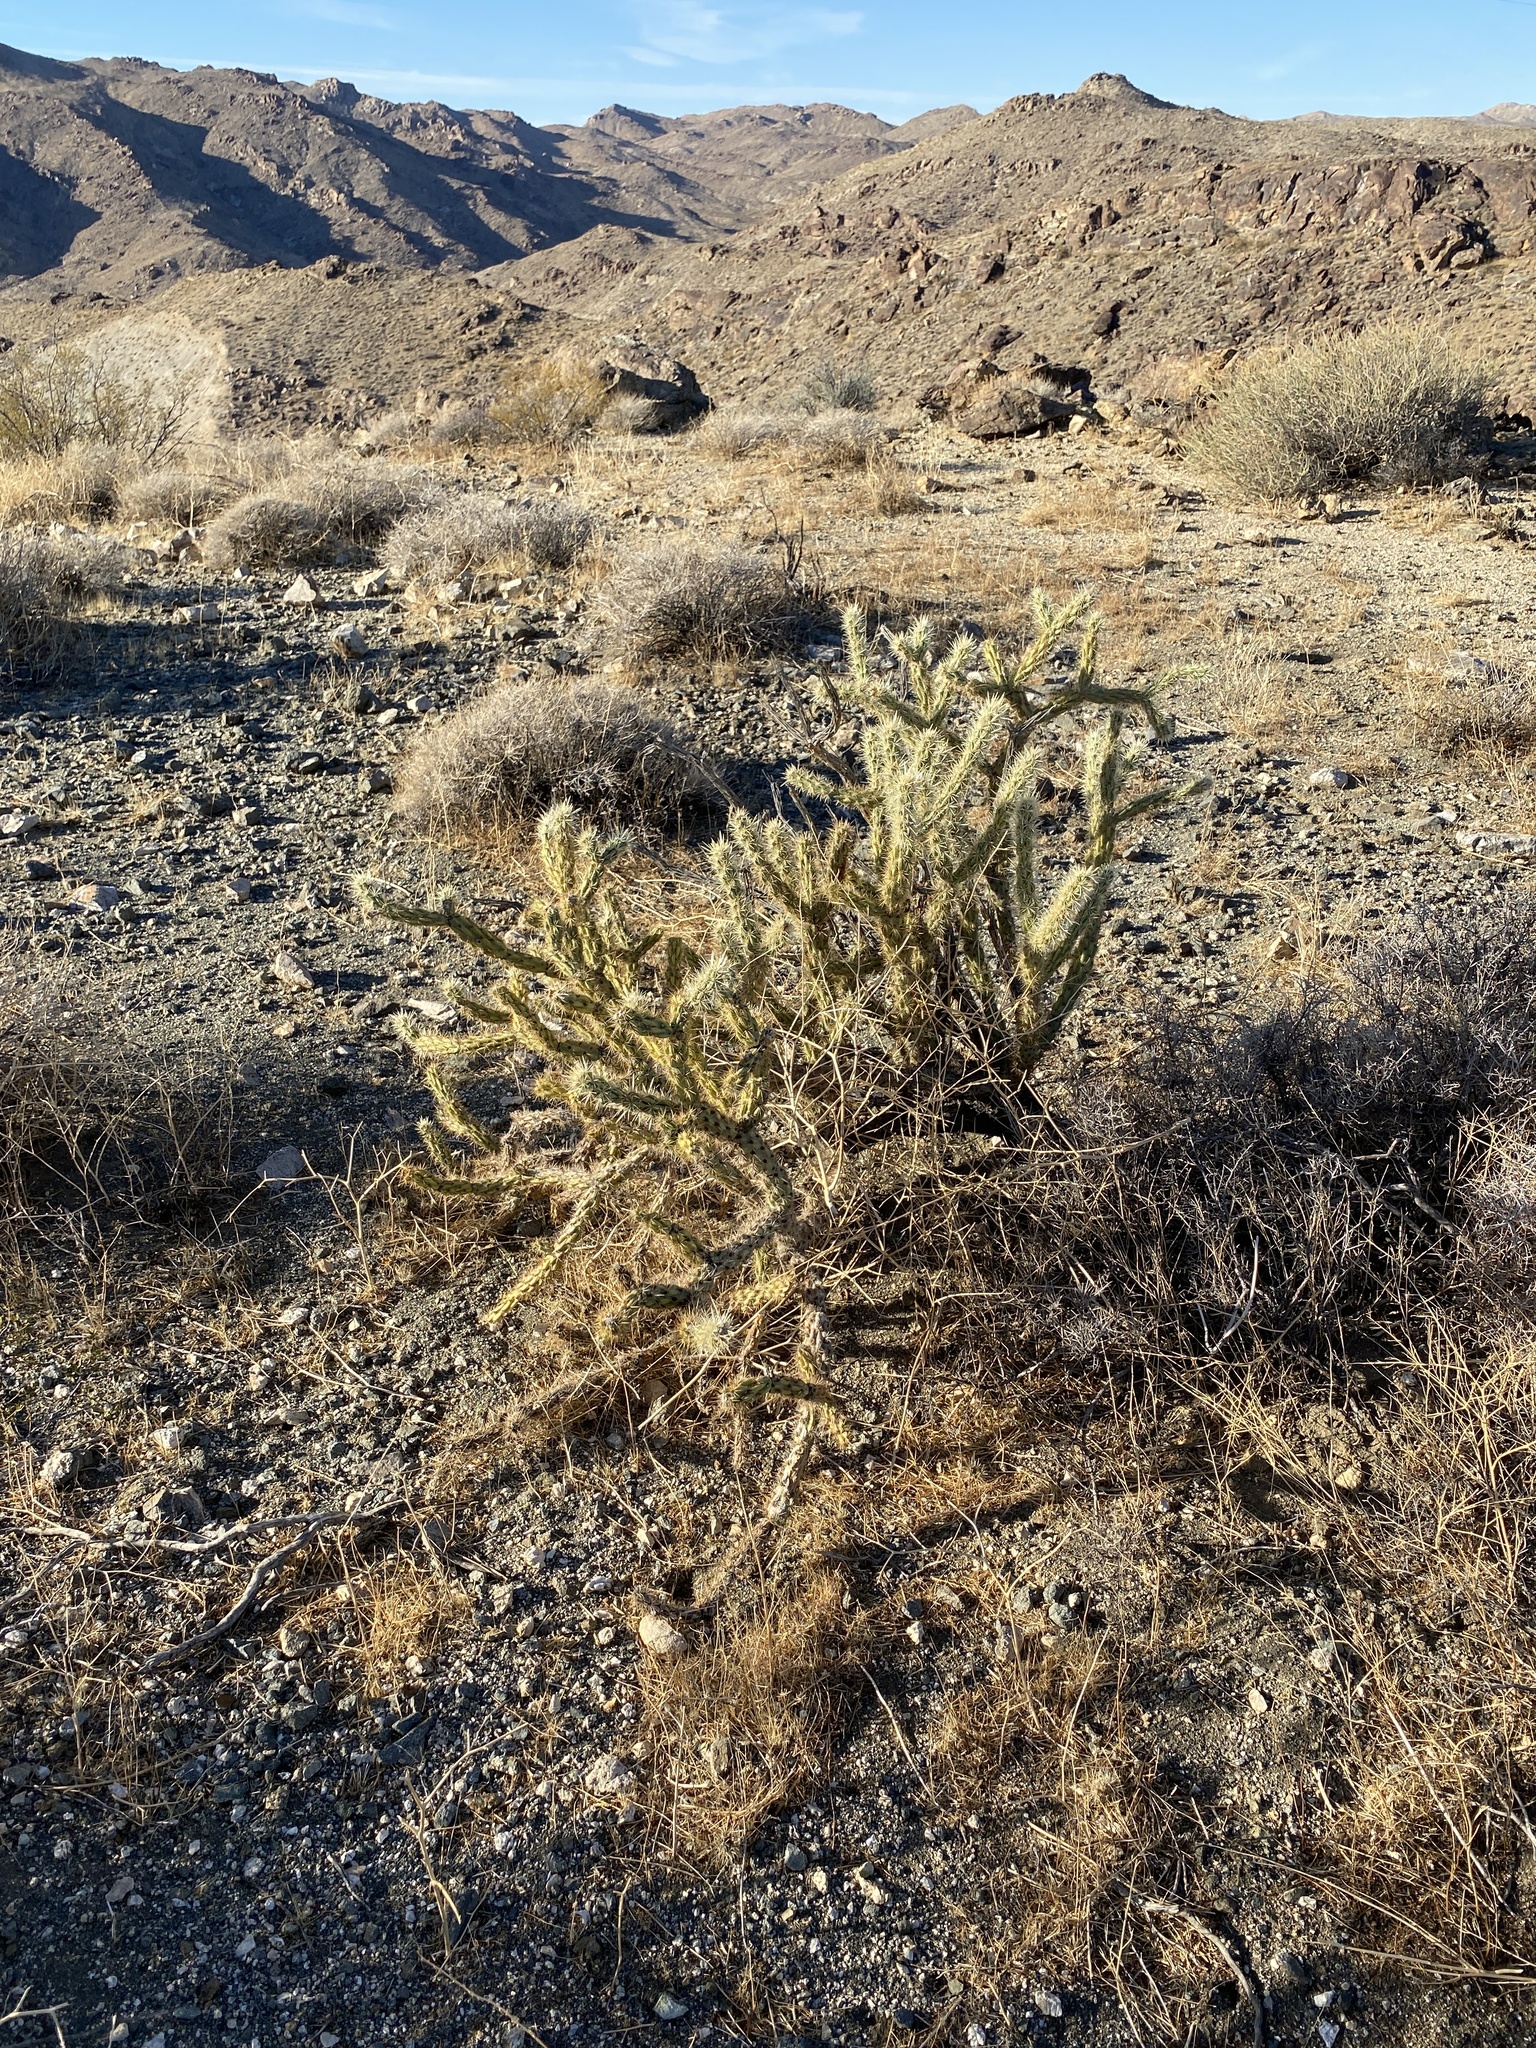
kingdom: Plantae
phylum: Tracheophyta
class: Magnoliopsida
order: Caryophyllales
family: Cactaceae
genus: Cylindropuntia
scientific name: Cylindropuntia acanthocarpa
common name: Buckhorn cholla
